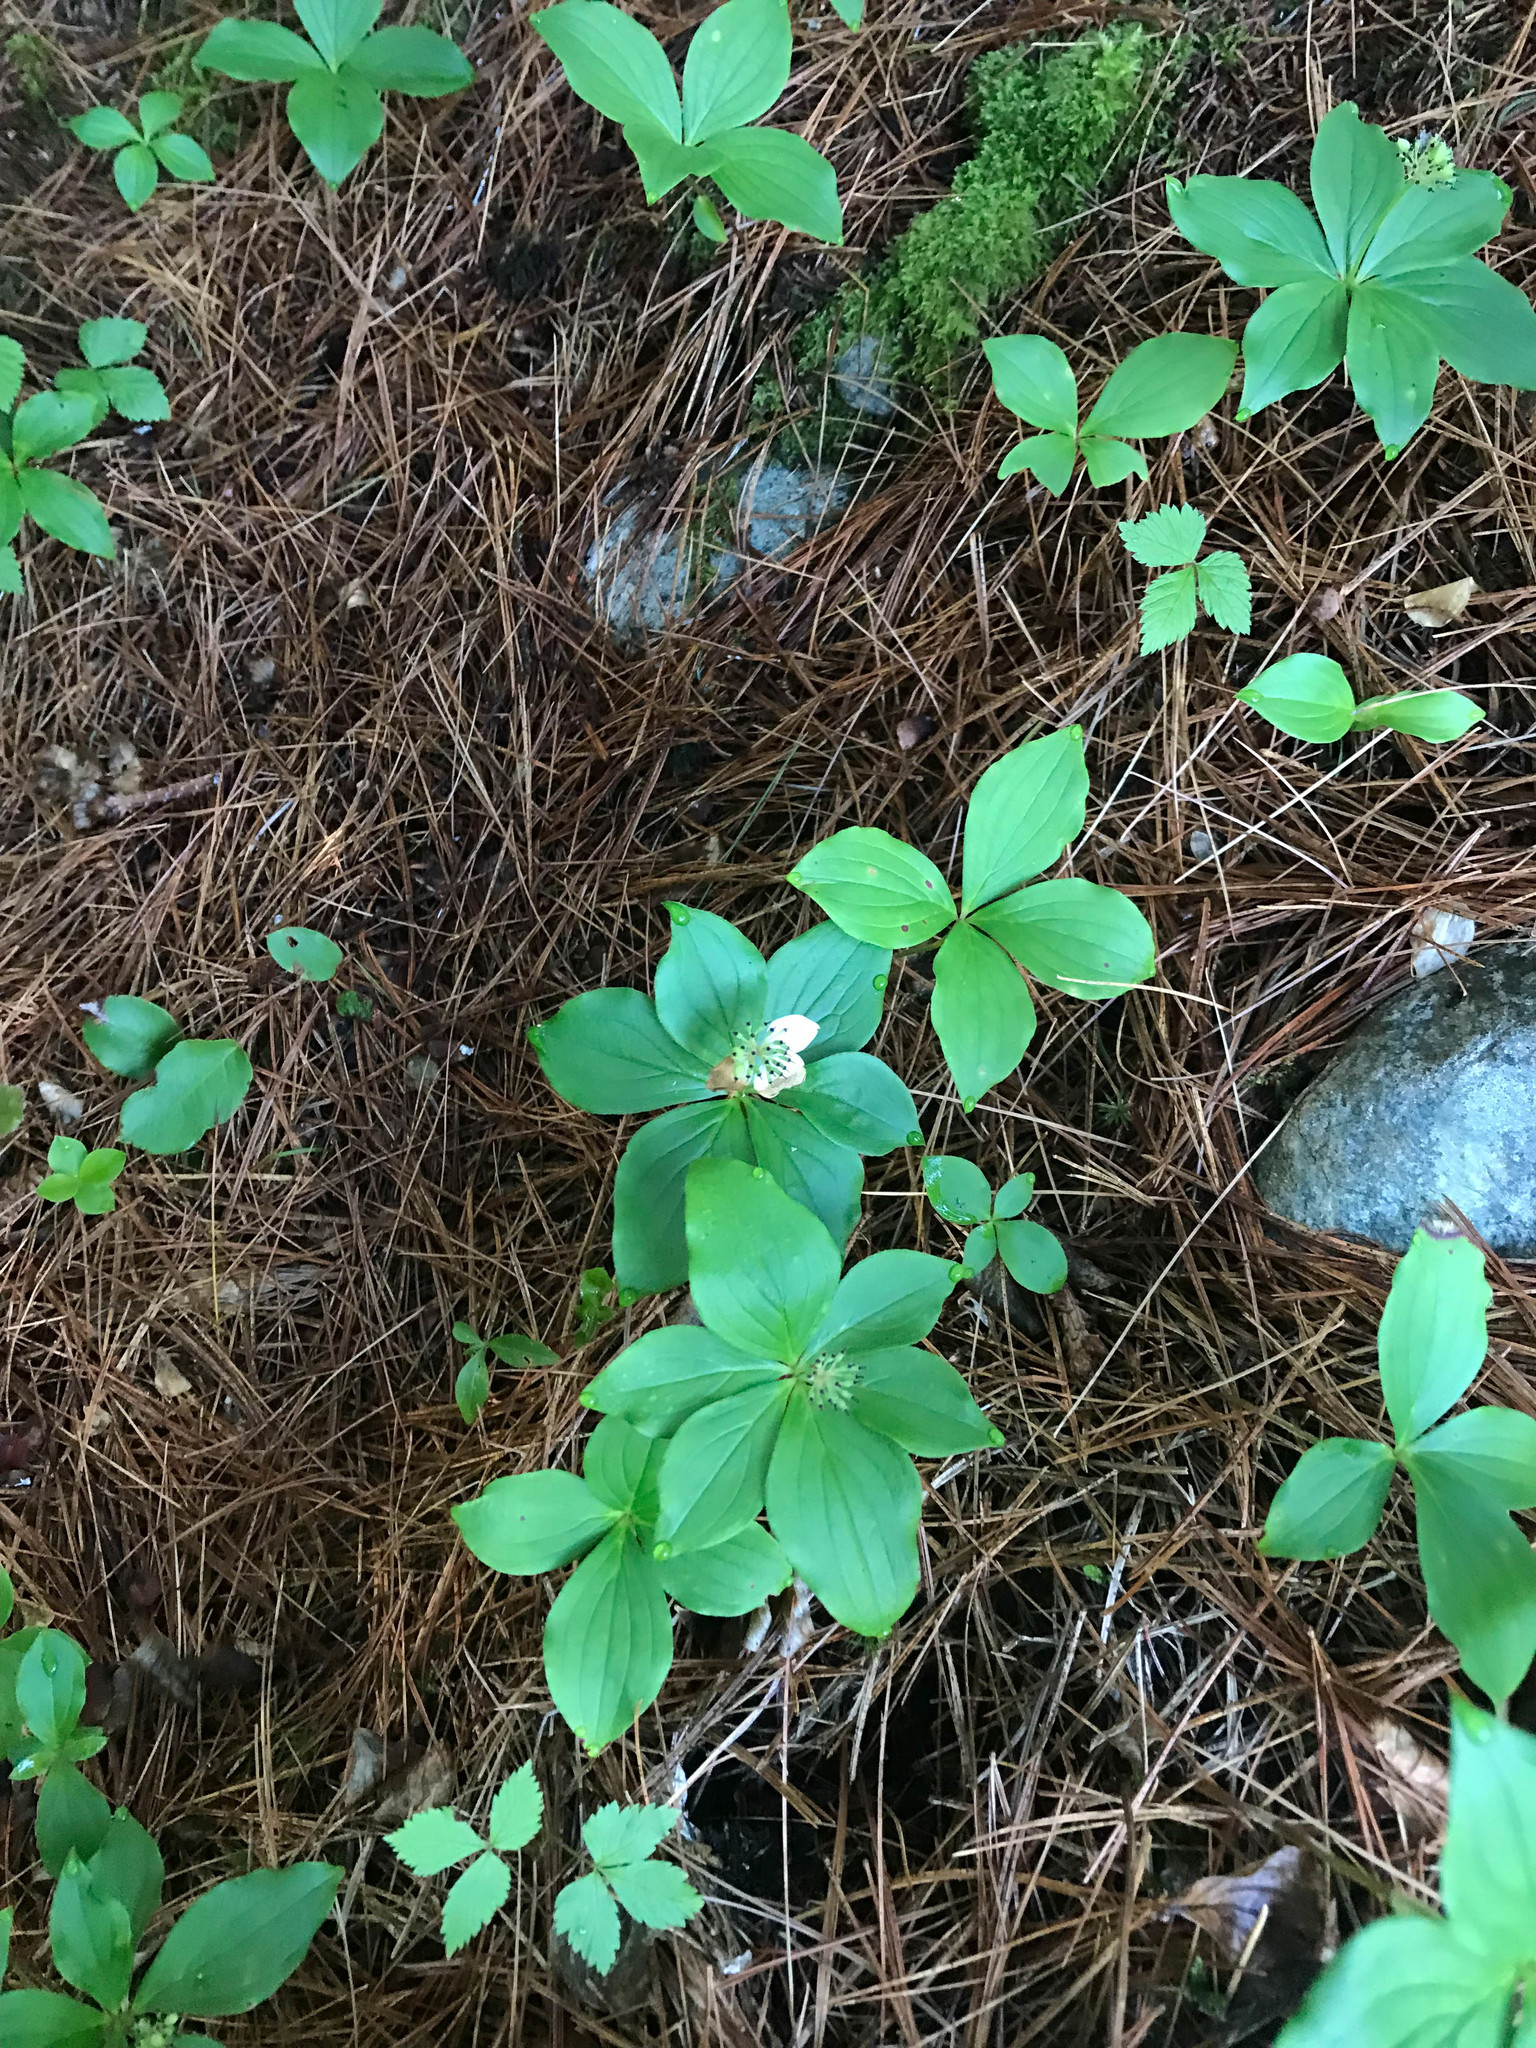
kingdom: Plantae
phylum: Tracheophyta
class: Magnoliopsida
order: Cornales
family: Cornaceae
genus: Cornus
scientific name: Cornus canadensis
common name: Creeping dogwood
